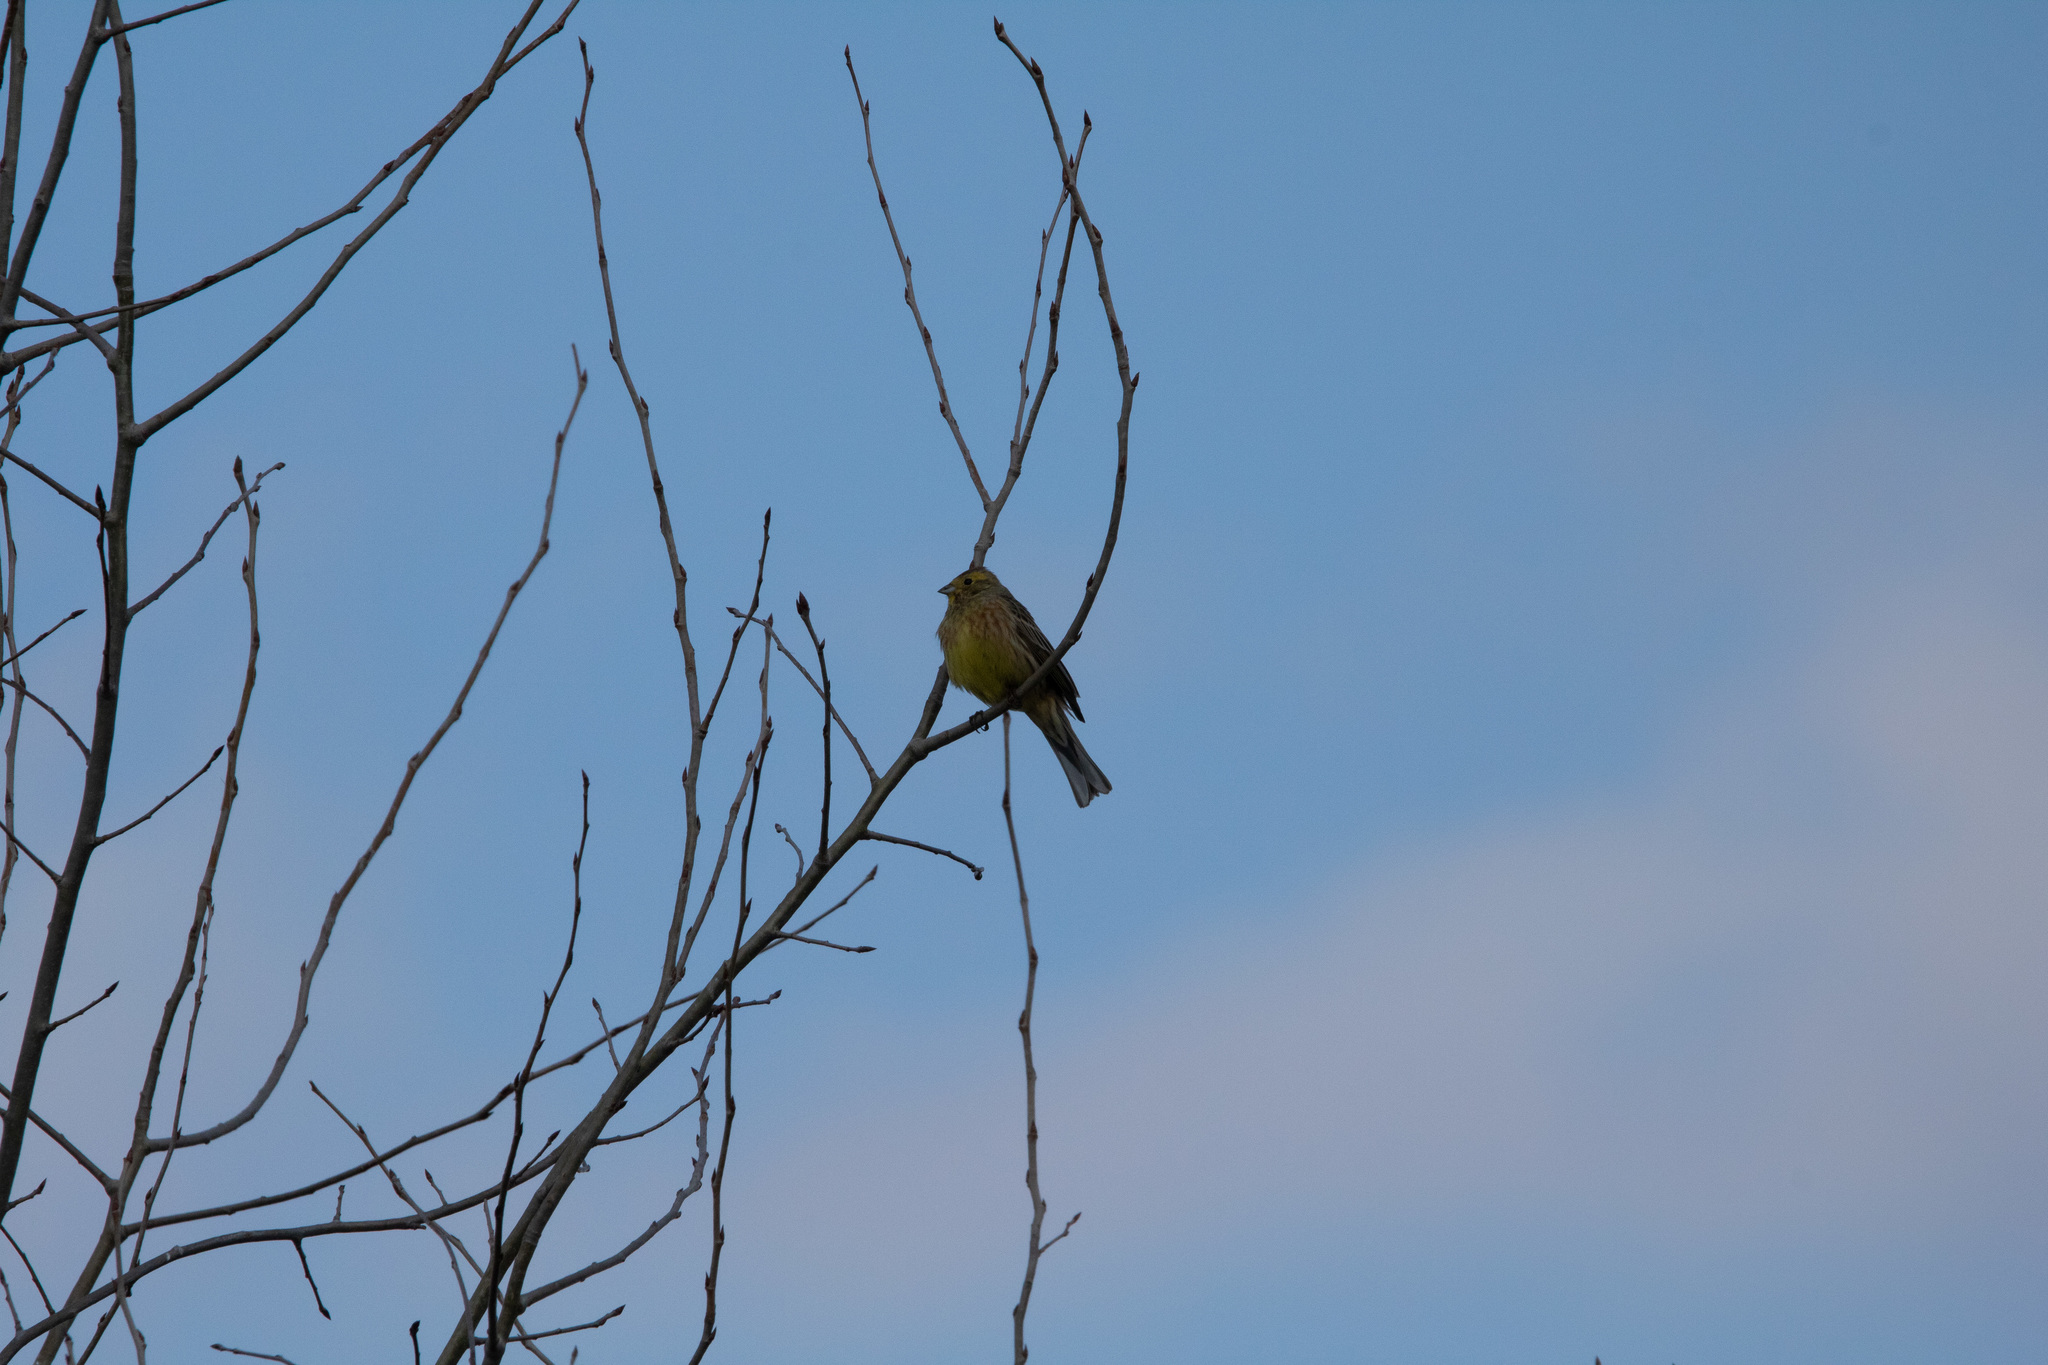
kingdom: Animalia
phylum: Chordata
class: Aves
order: Passeriformes
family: Emberizidae
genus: Emberiza
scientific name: Emberiza citrinella
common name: Yellowhammer
